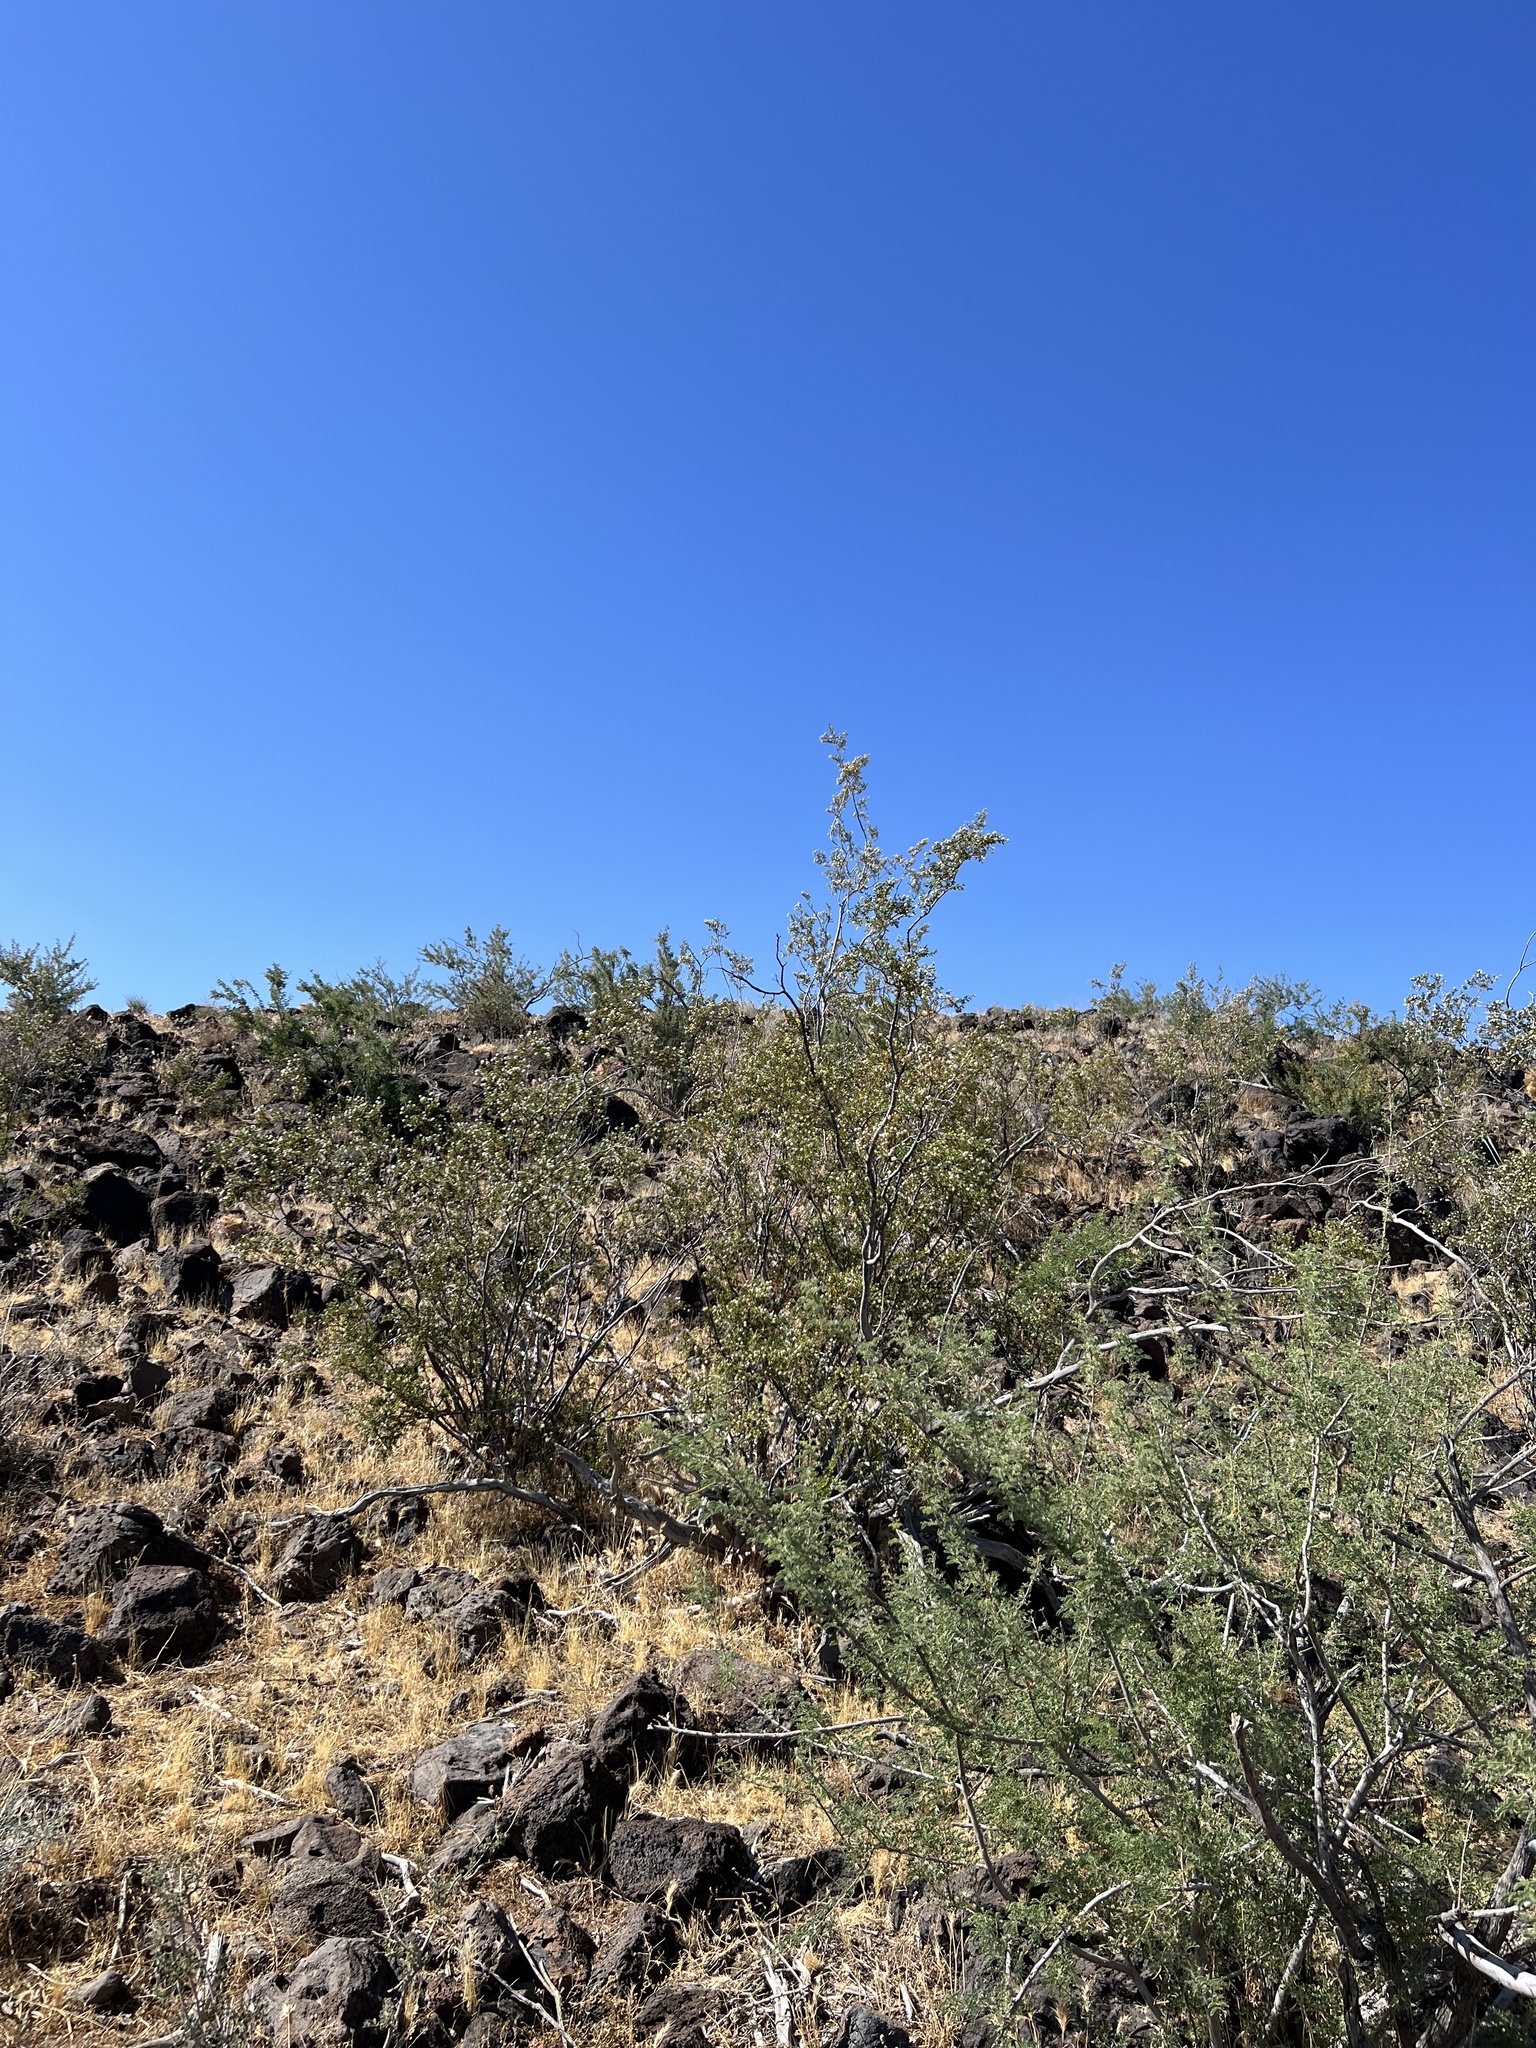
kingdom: Plantae
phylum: Tracheophyta
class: Magnoliopsida
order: Fabales
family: Fabaceae
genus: Senegalia
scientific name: Senegalia greggii
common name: Texas-mimosa
